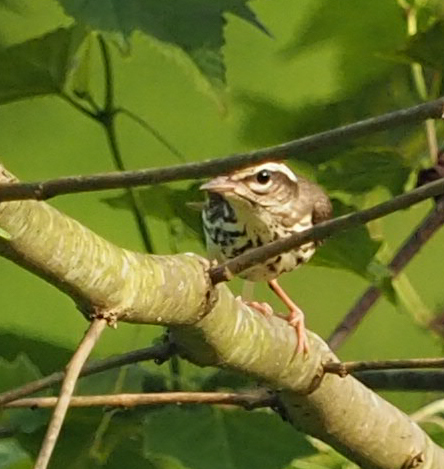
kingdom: Animalia
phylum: Chordata
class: Aves
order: Passeriformes
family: Parulidae
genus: Parkesia
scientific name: Parkesia motacilla
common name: Louisiana waterthrush
